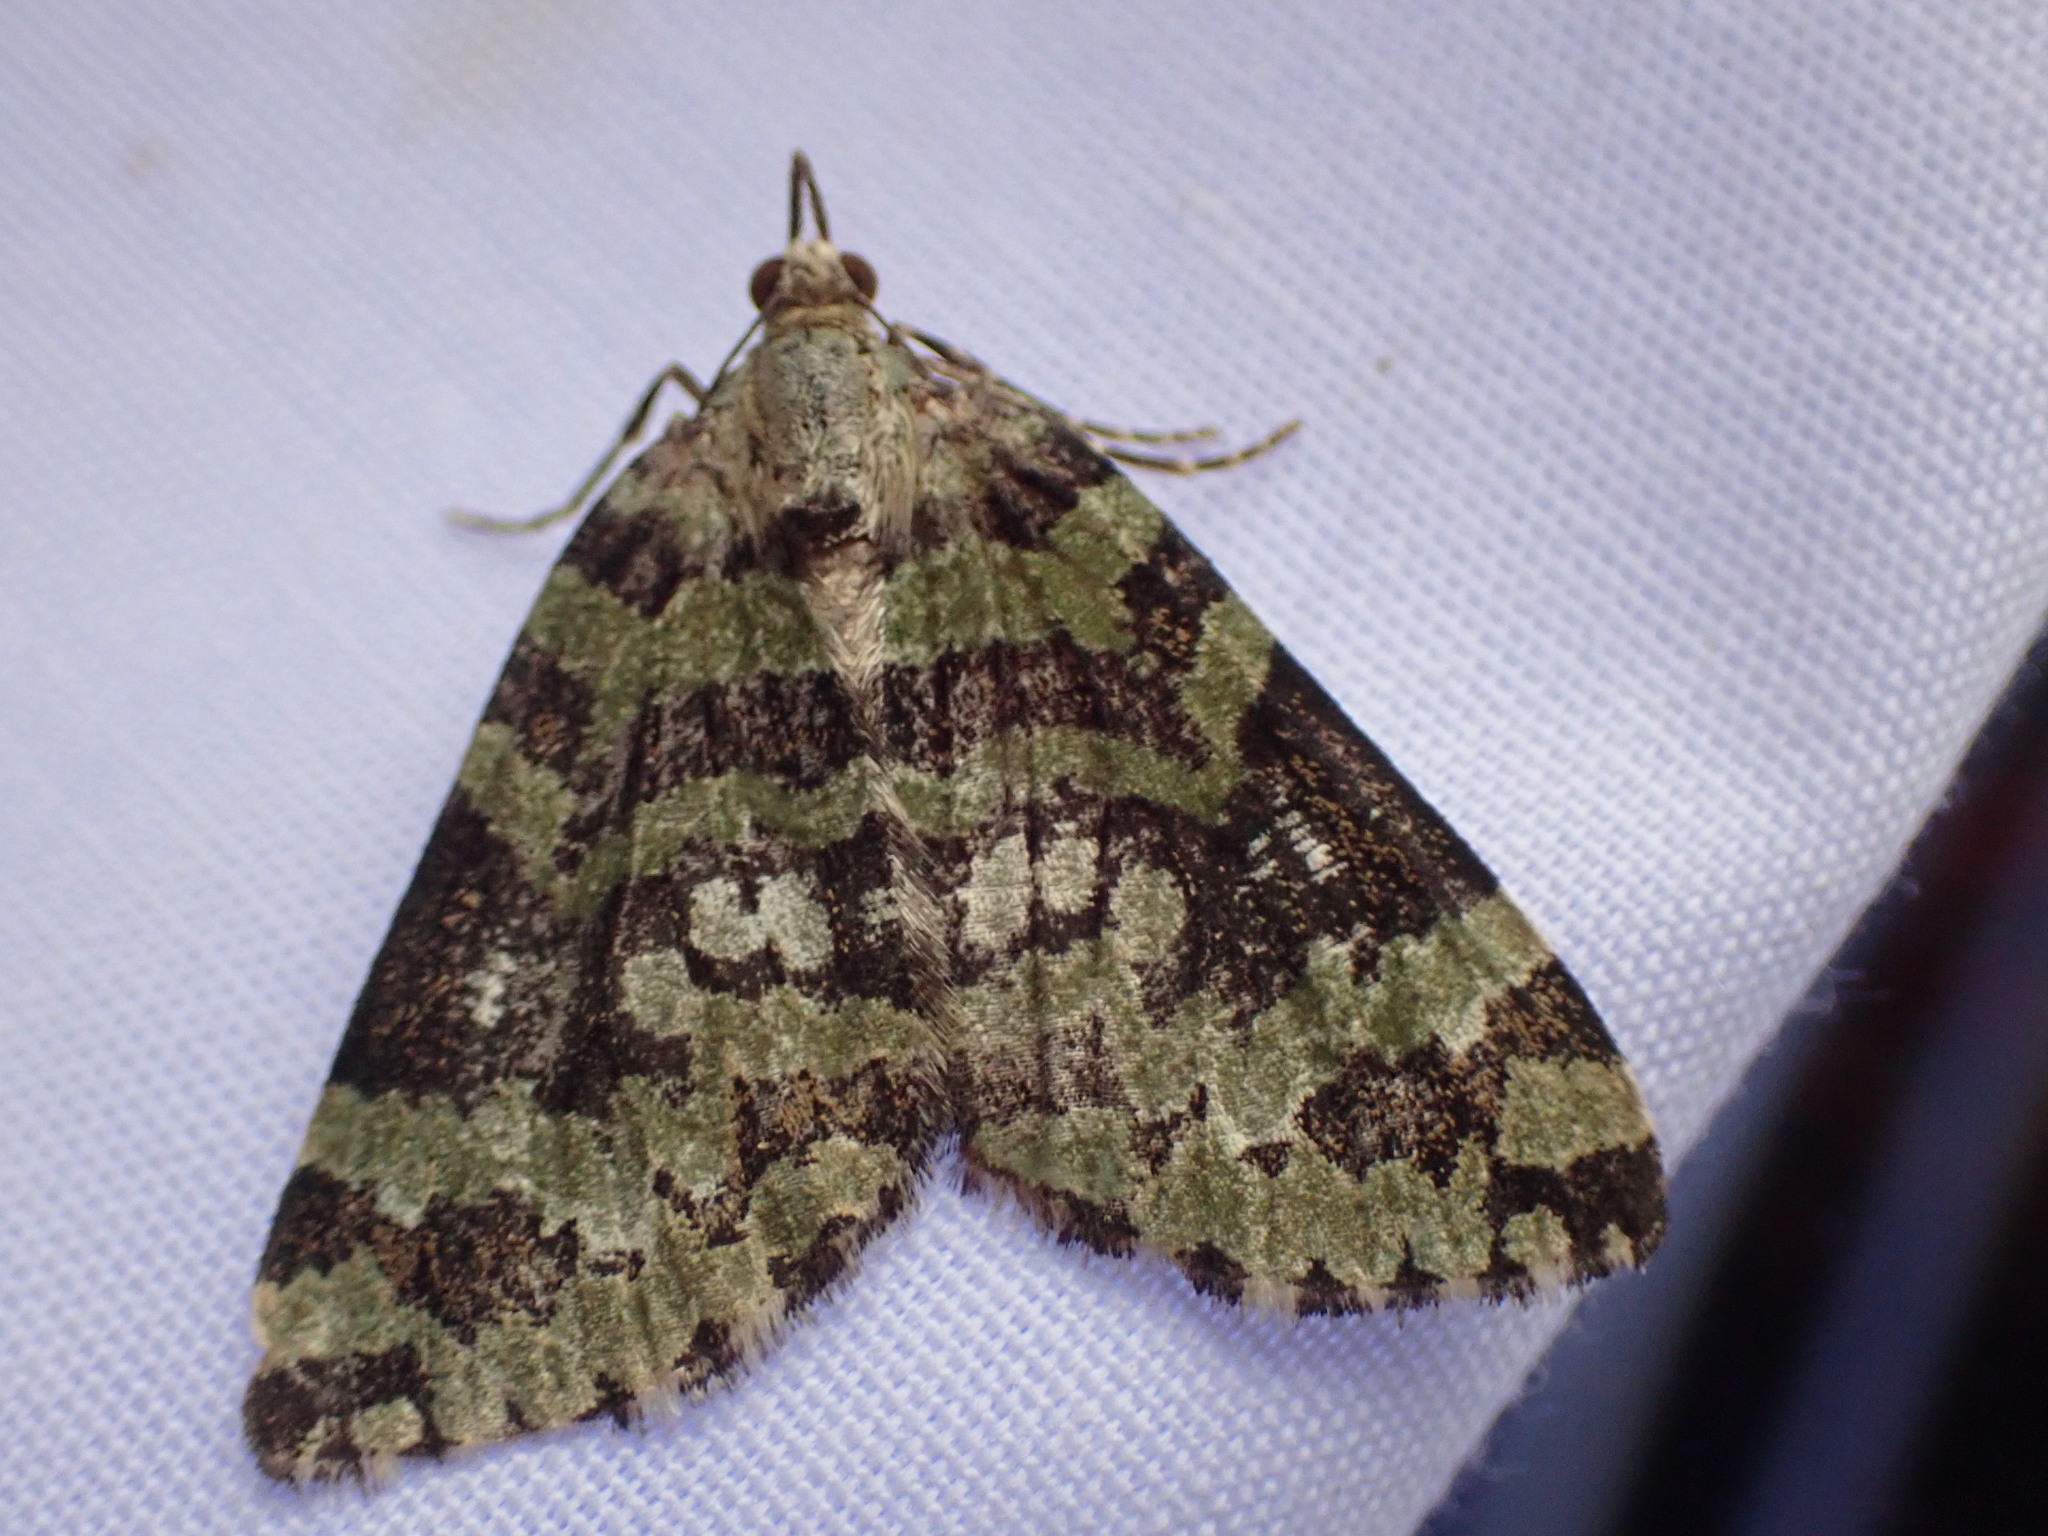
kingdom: Animalia
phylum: Arthropoda
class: Insecta
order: Lepidoptera
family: Geometridae
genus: Hydriomena
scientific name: Hydriomena speciosata
